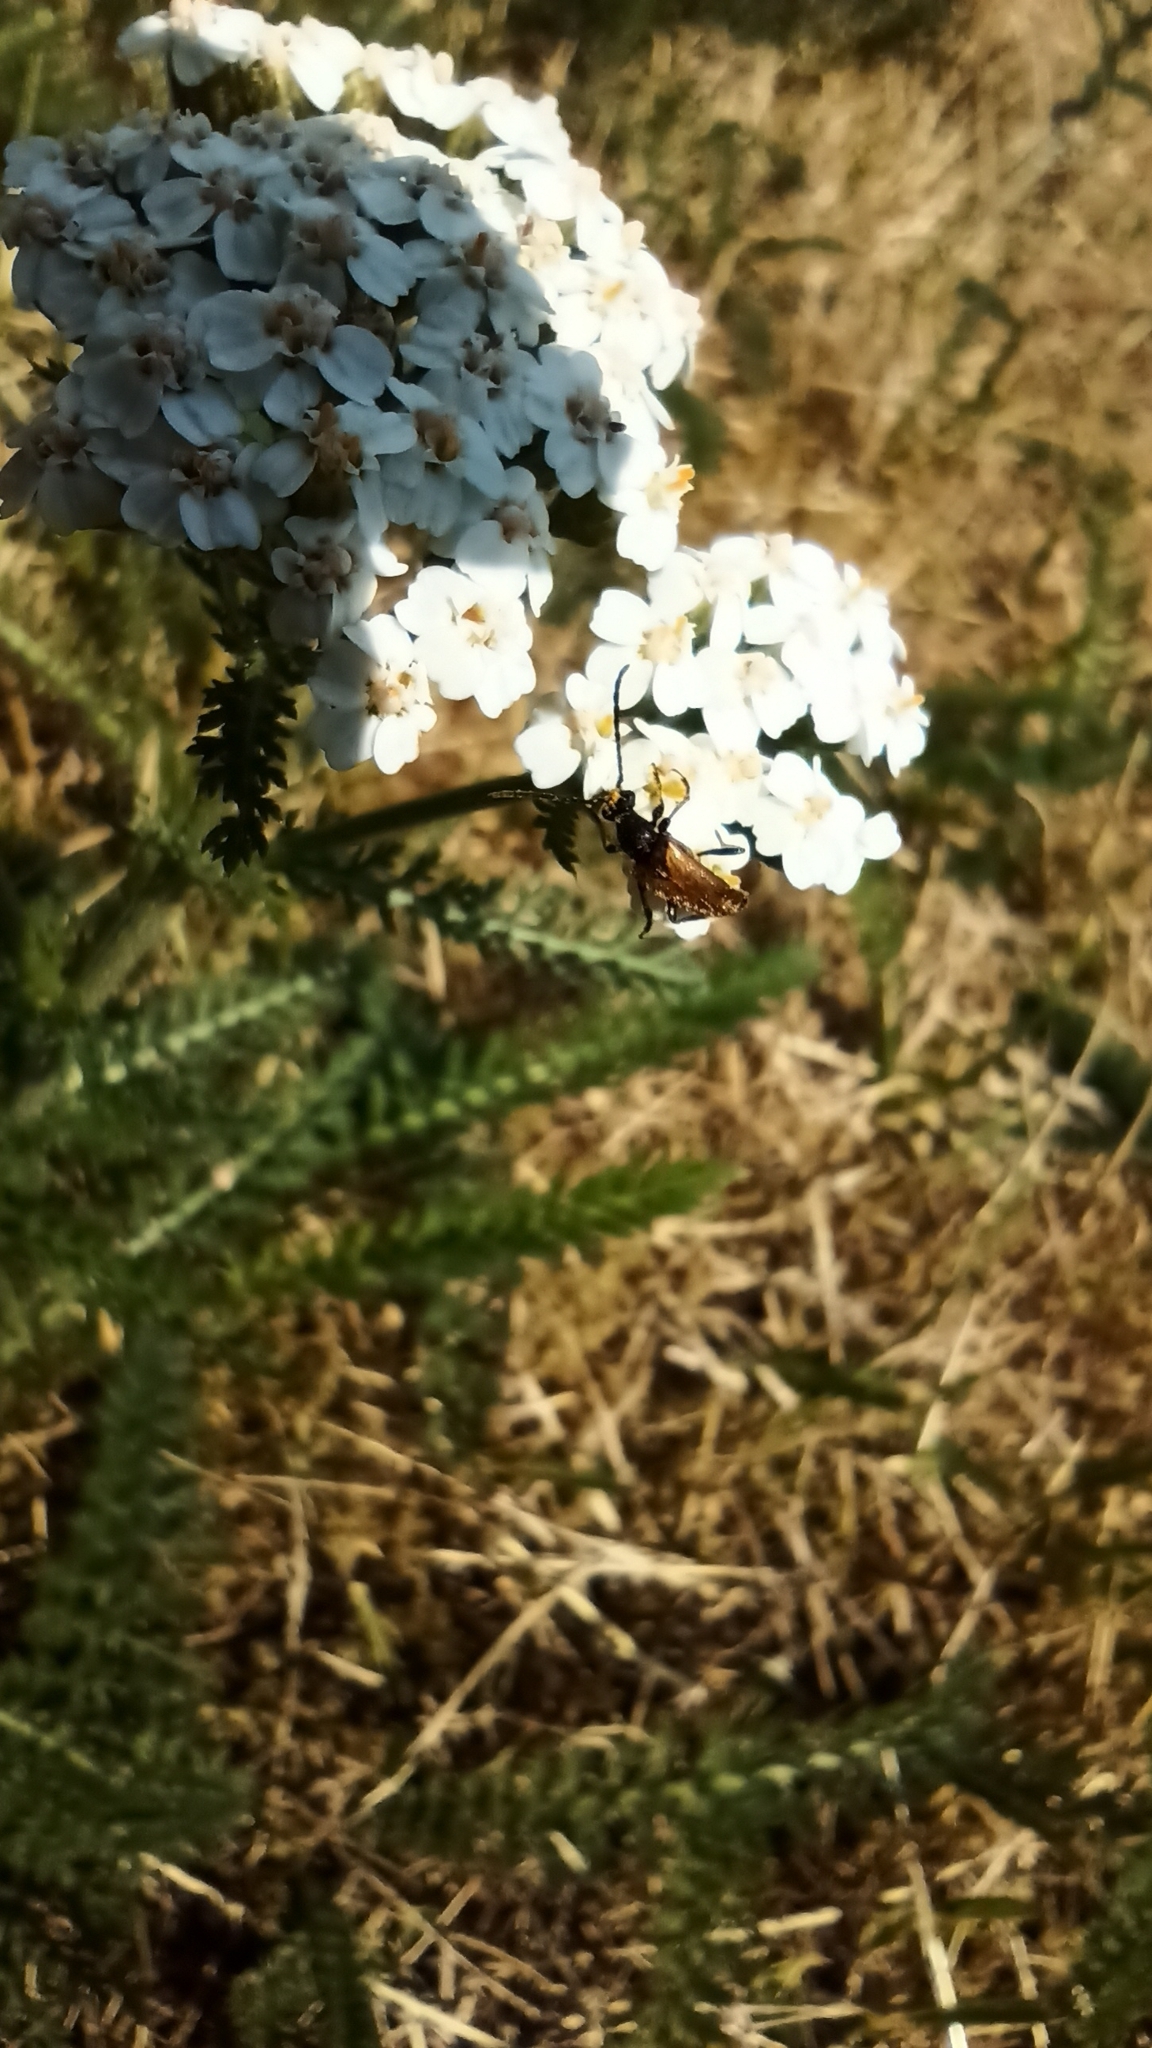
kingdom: Animalia
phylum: Arthropoda
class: Insecta
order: Coleoptera
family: Cerambycidae
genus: Pseudovadonia
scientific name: Pseudovadonia livida
